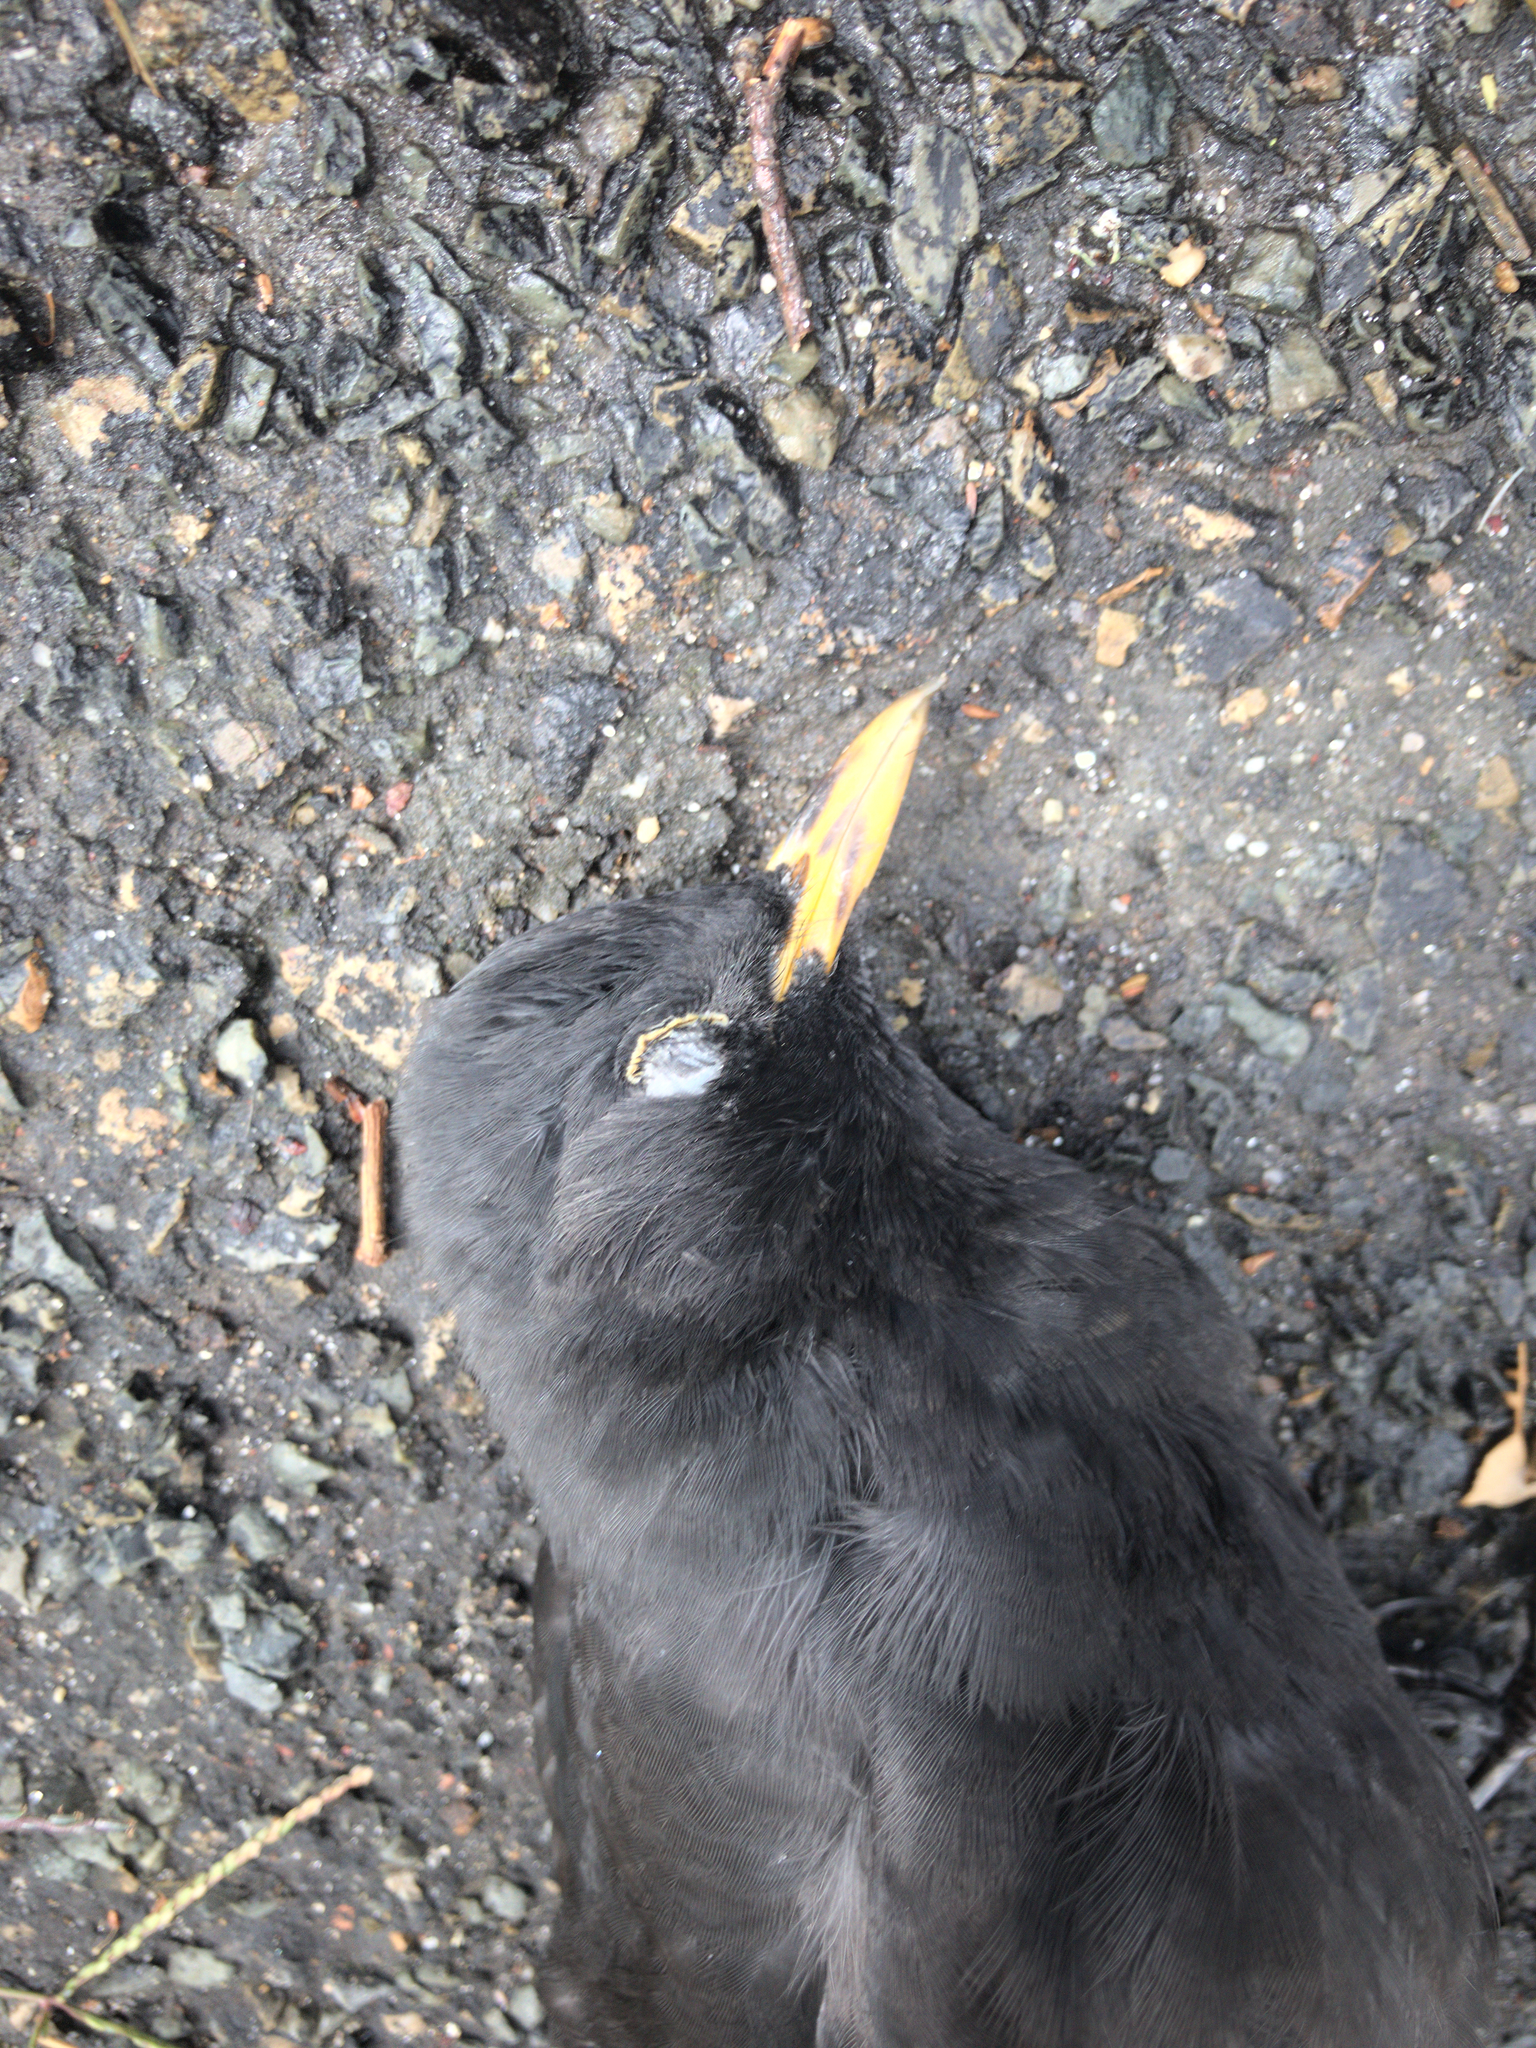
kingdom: Animalia
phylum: Chordata
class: Aves
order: Passeriformes
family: Turdidae
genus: Turdus
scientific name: Turdus merula
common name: Common blackbird
